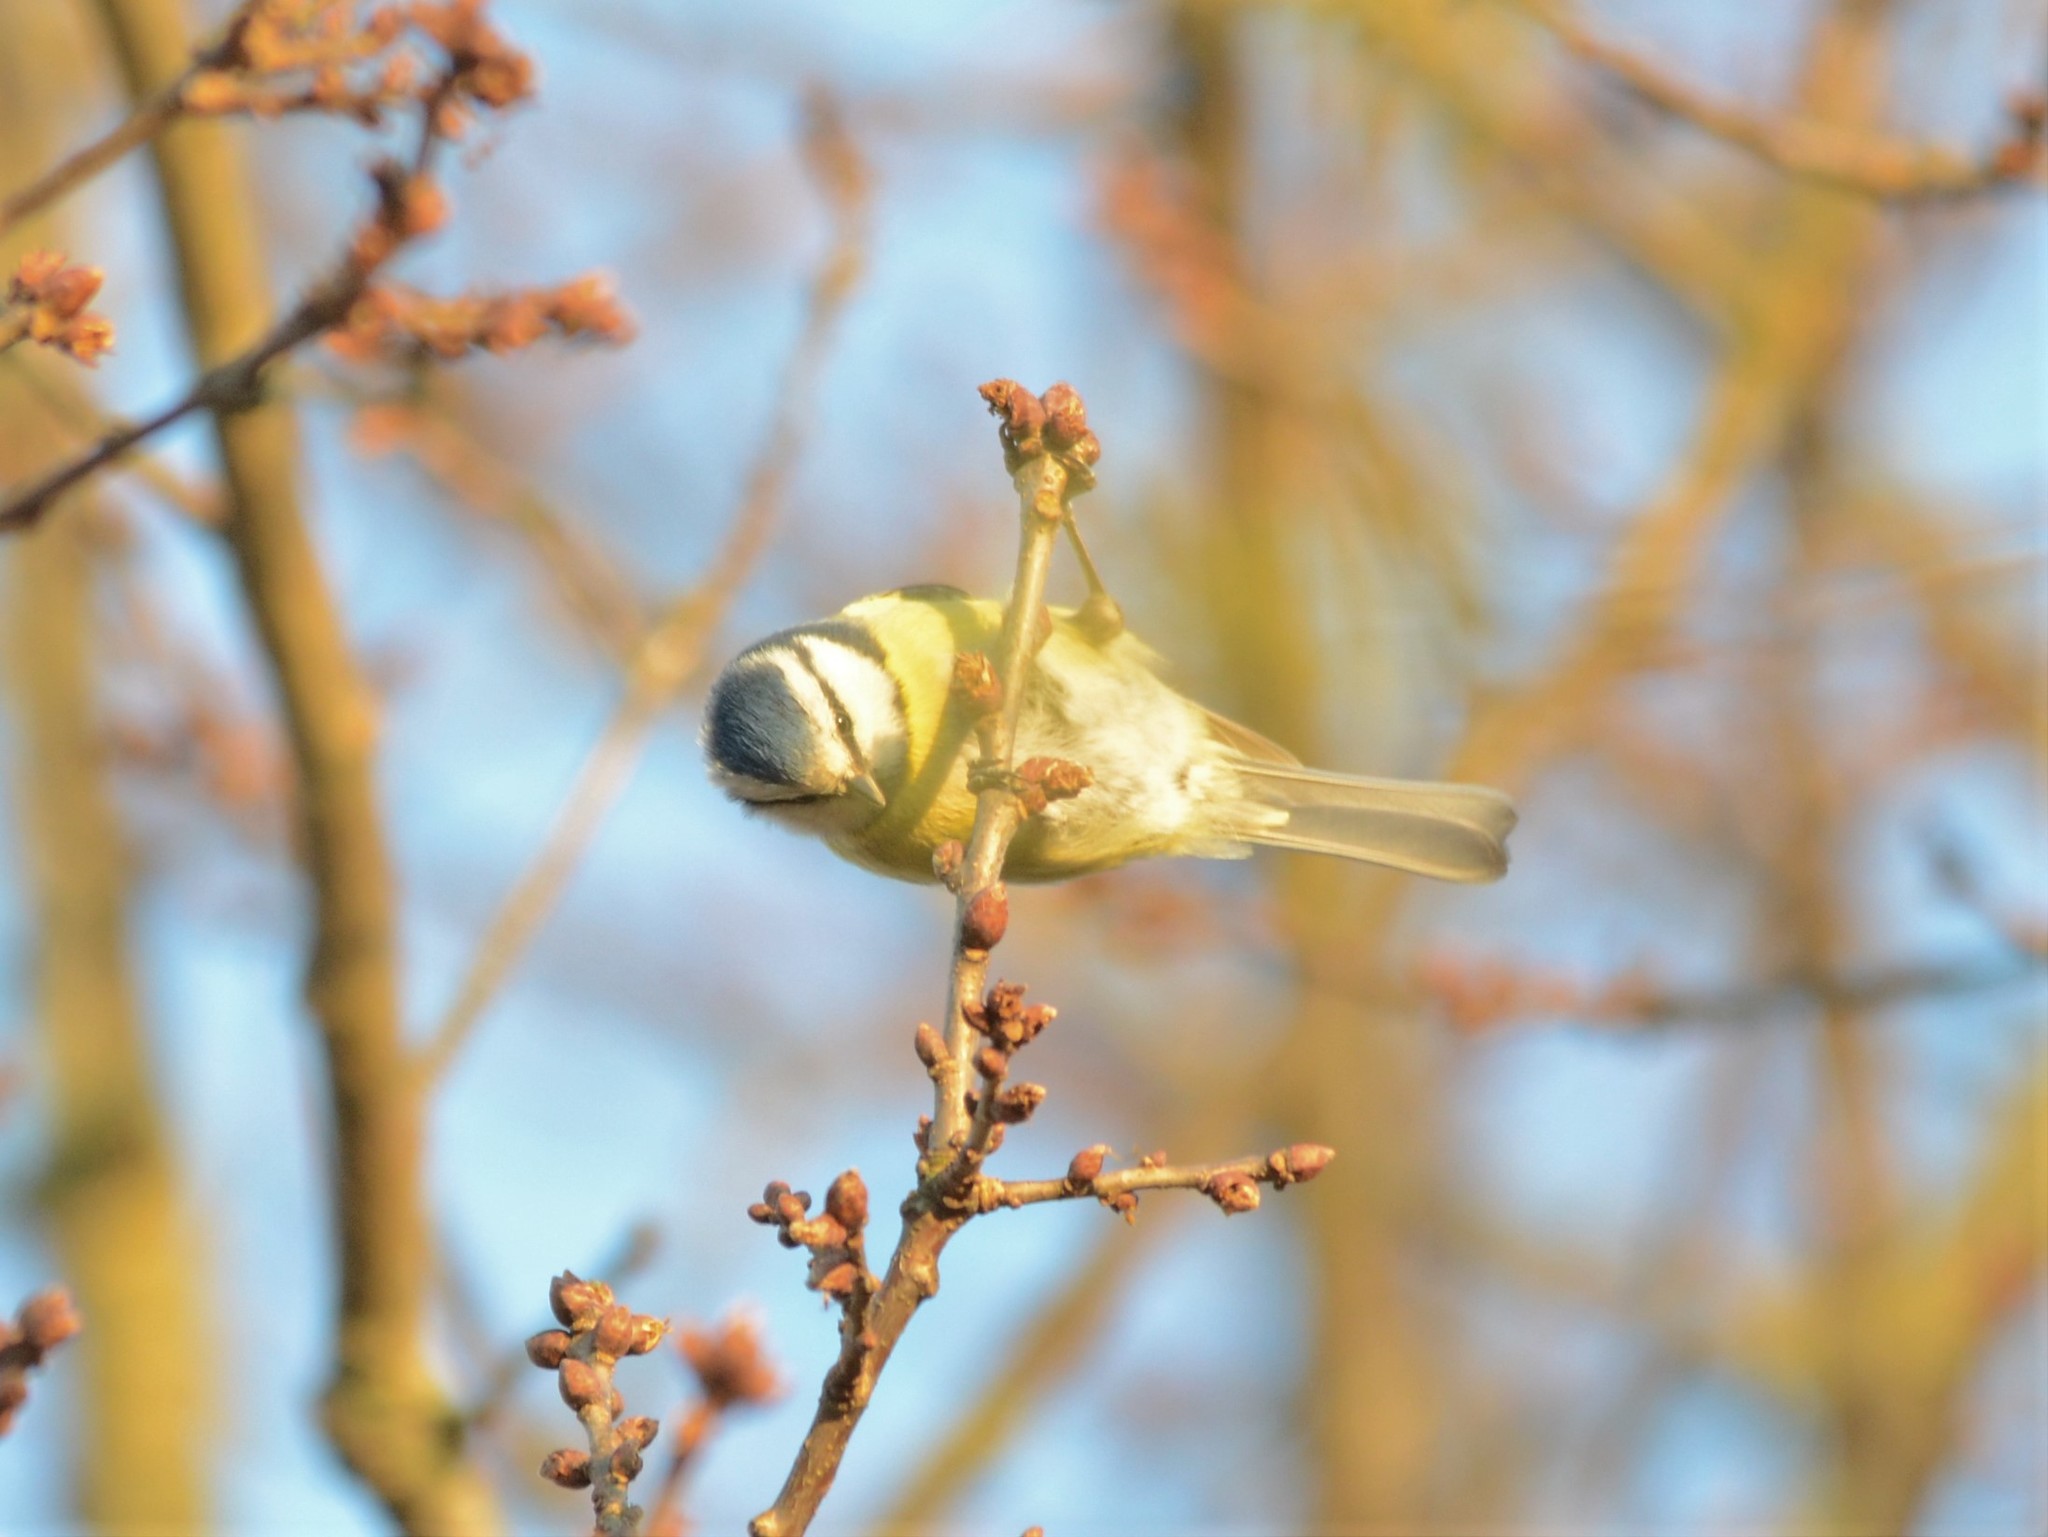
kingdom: Animalia
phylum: Chordata
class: Aves
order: Passeriformes
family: Paridae
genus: Cyanistes
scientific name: Cyanistes caeruleus
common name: Eurasian blue tit
